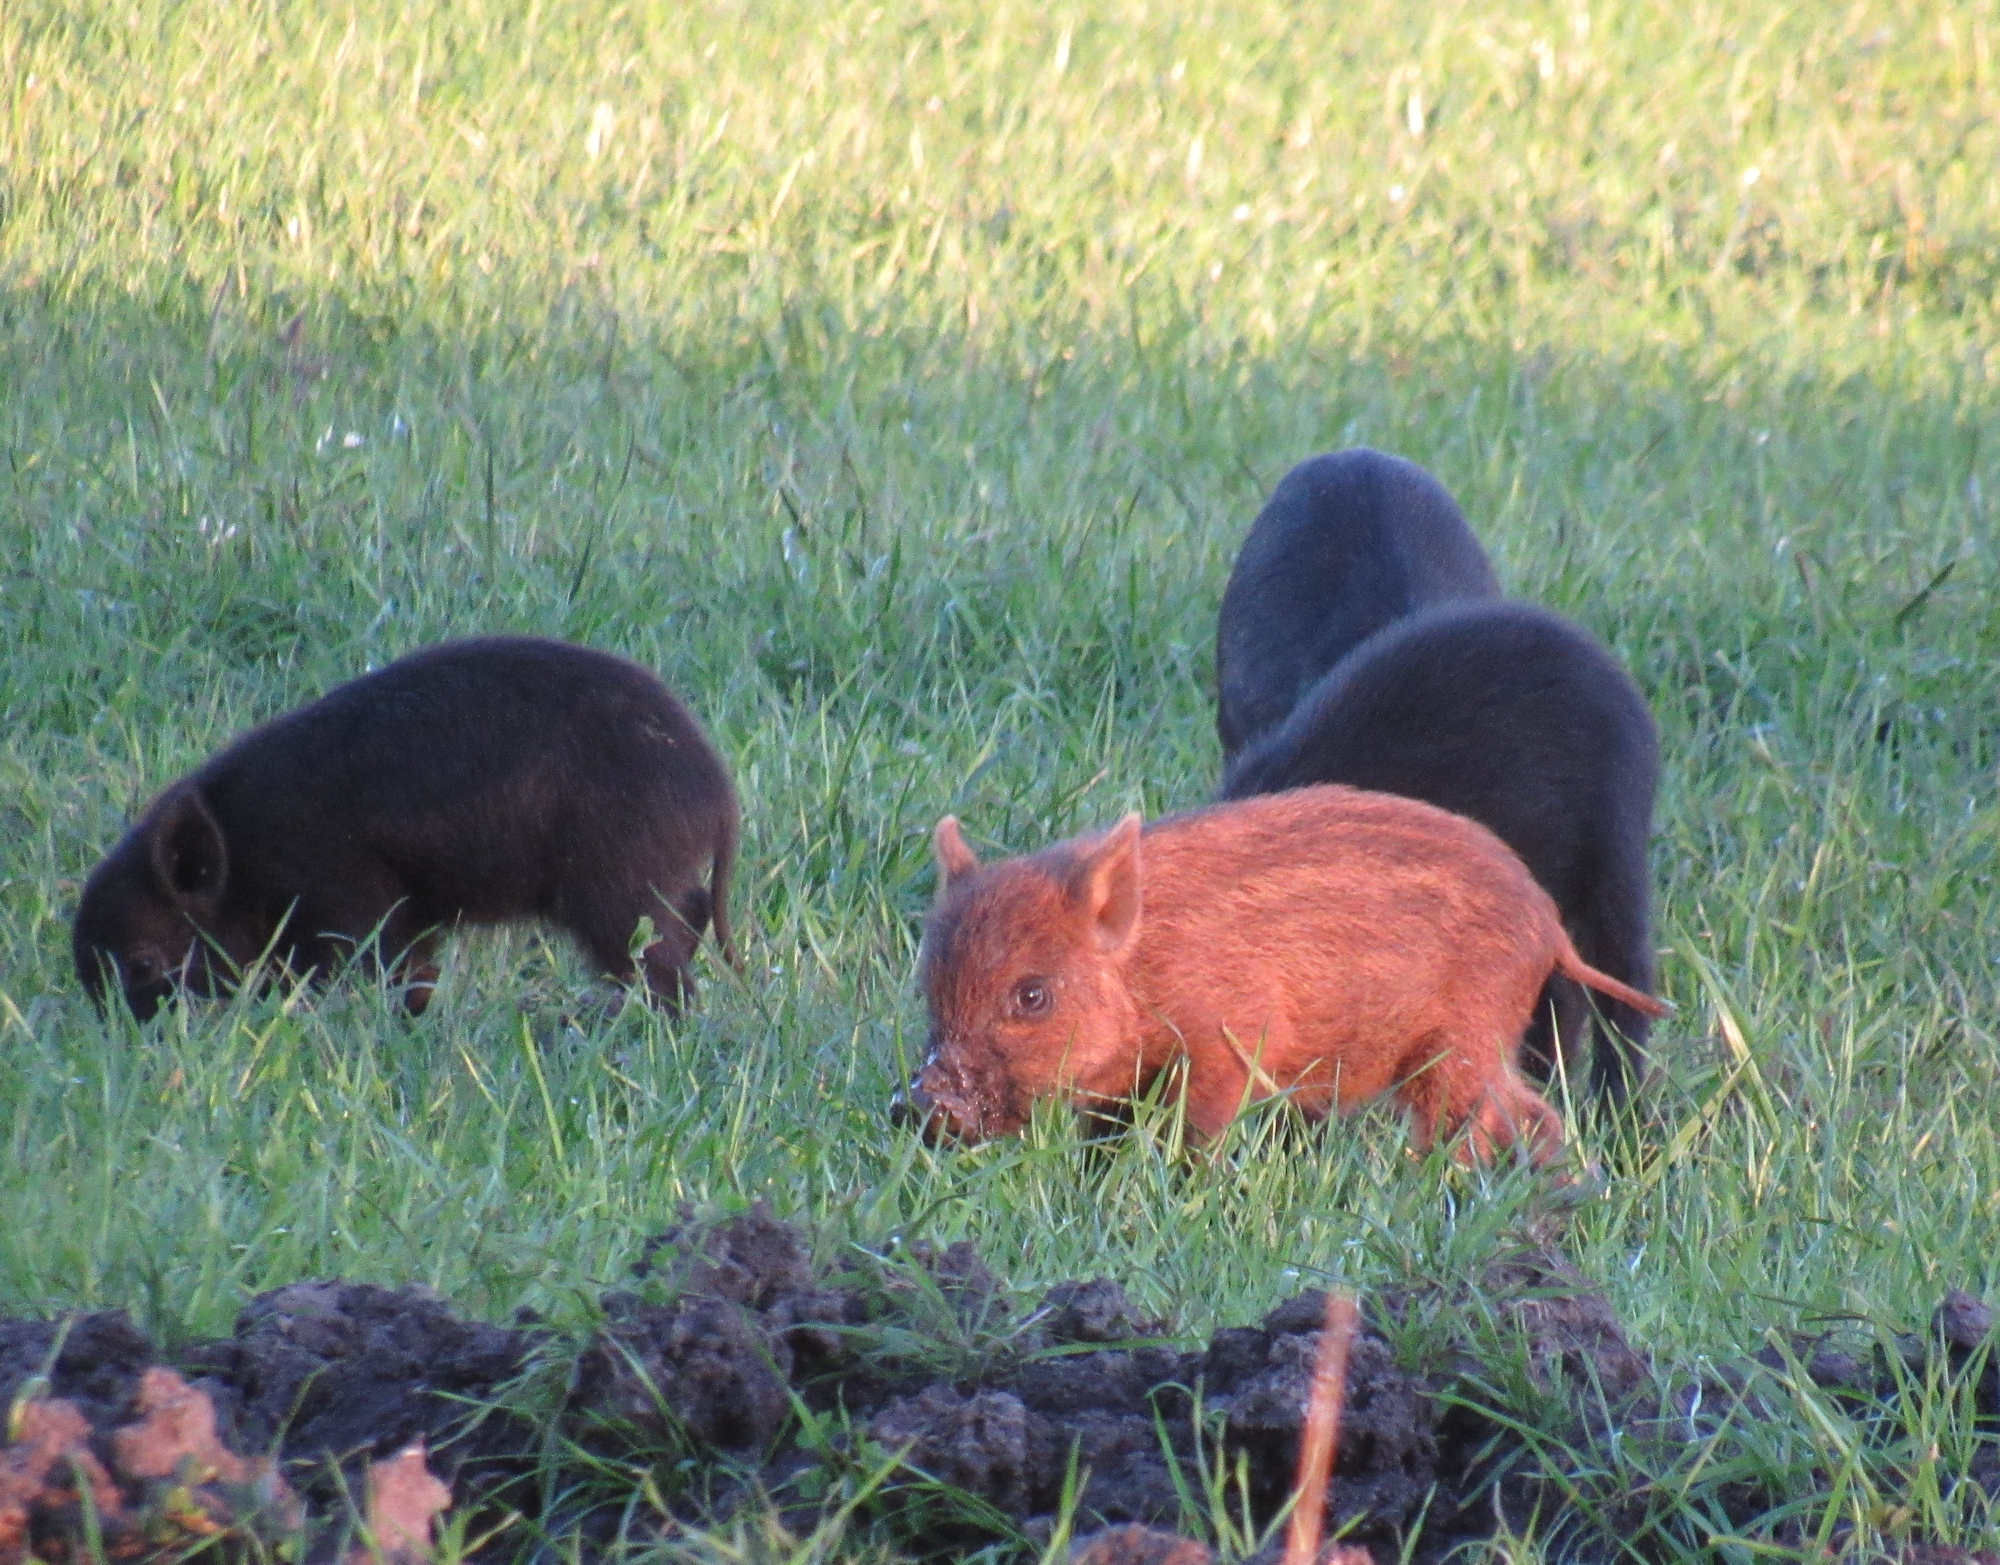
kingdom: Animalia
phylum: Chordata
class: Mammalia
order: Artiodactyla
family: Suidae
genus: Sus
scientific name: Sus scrofa
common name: Wild boar
